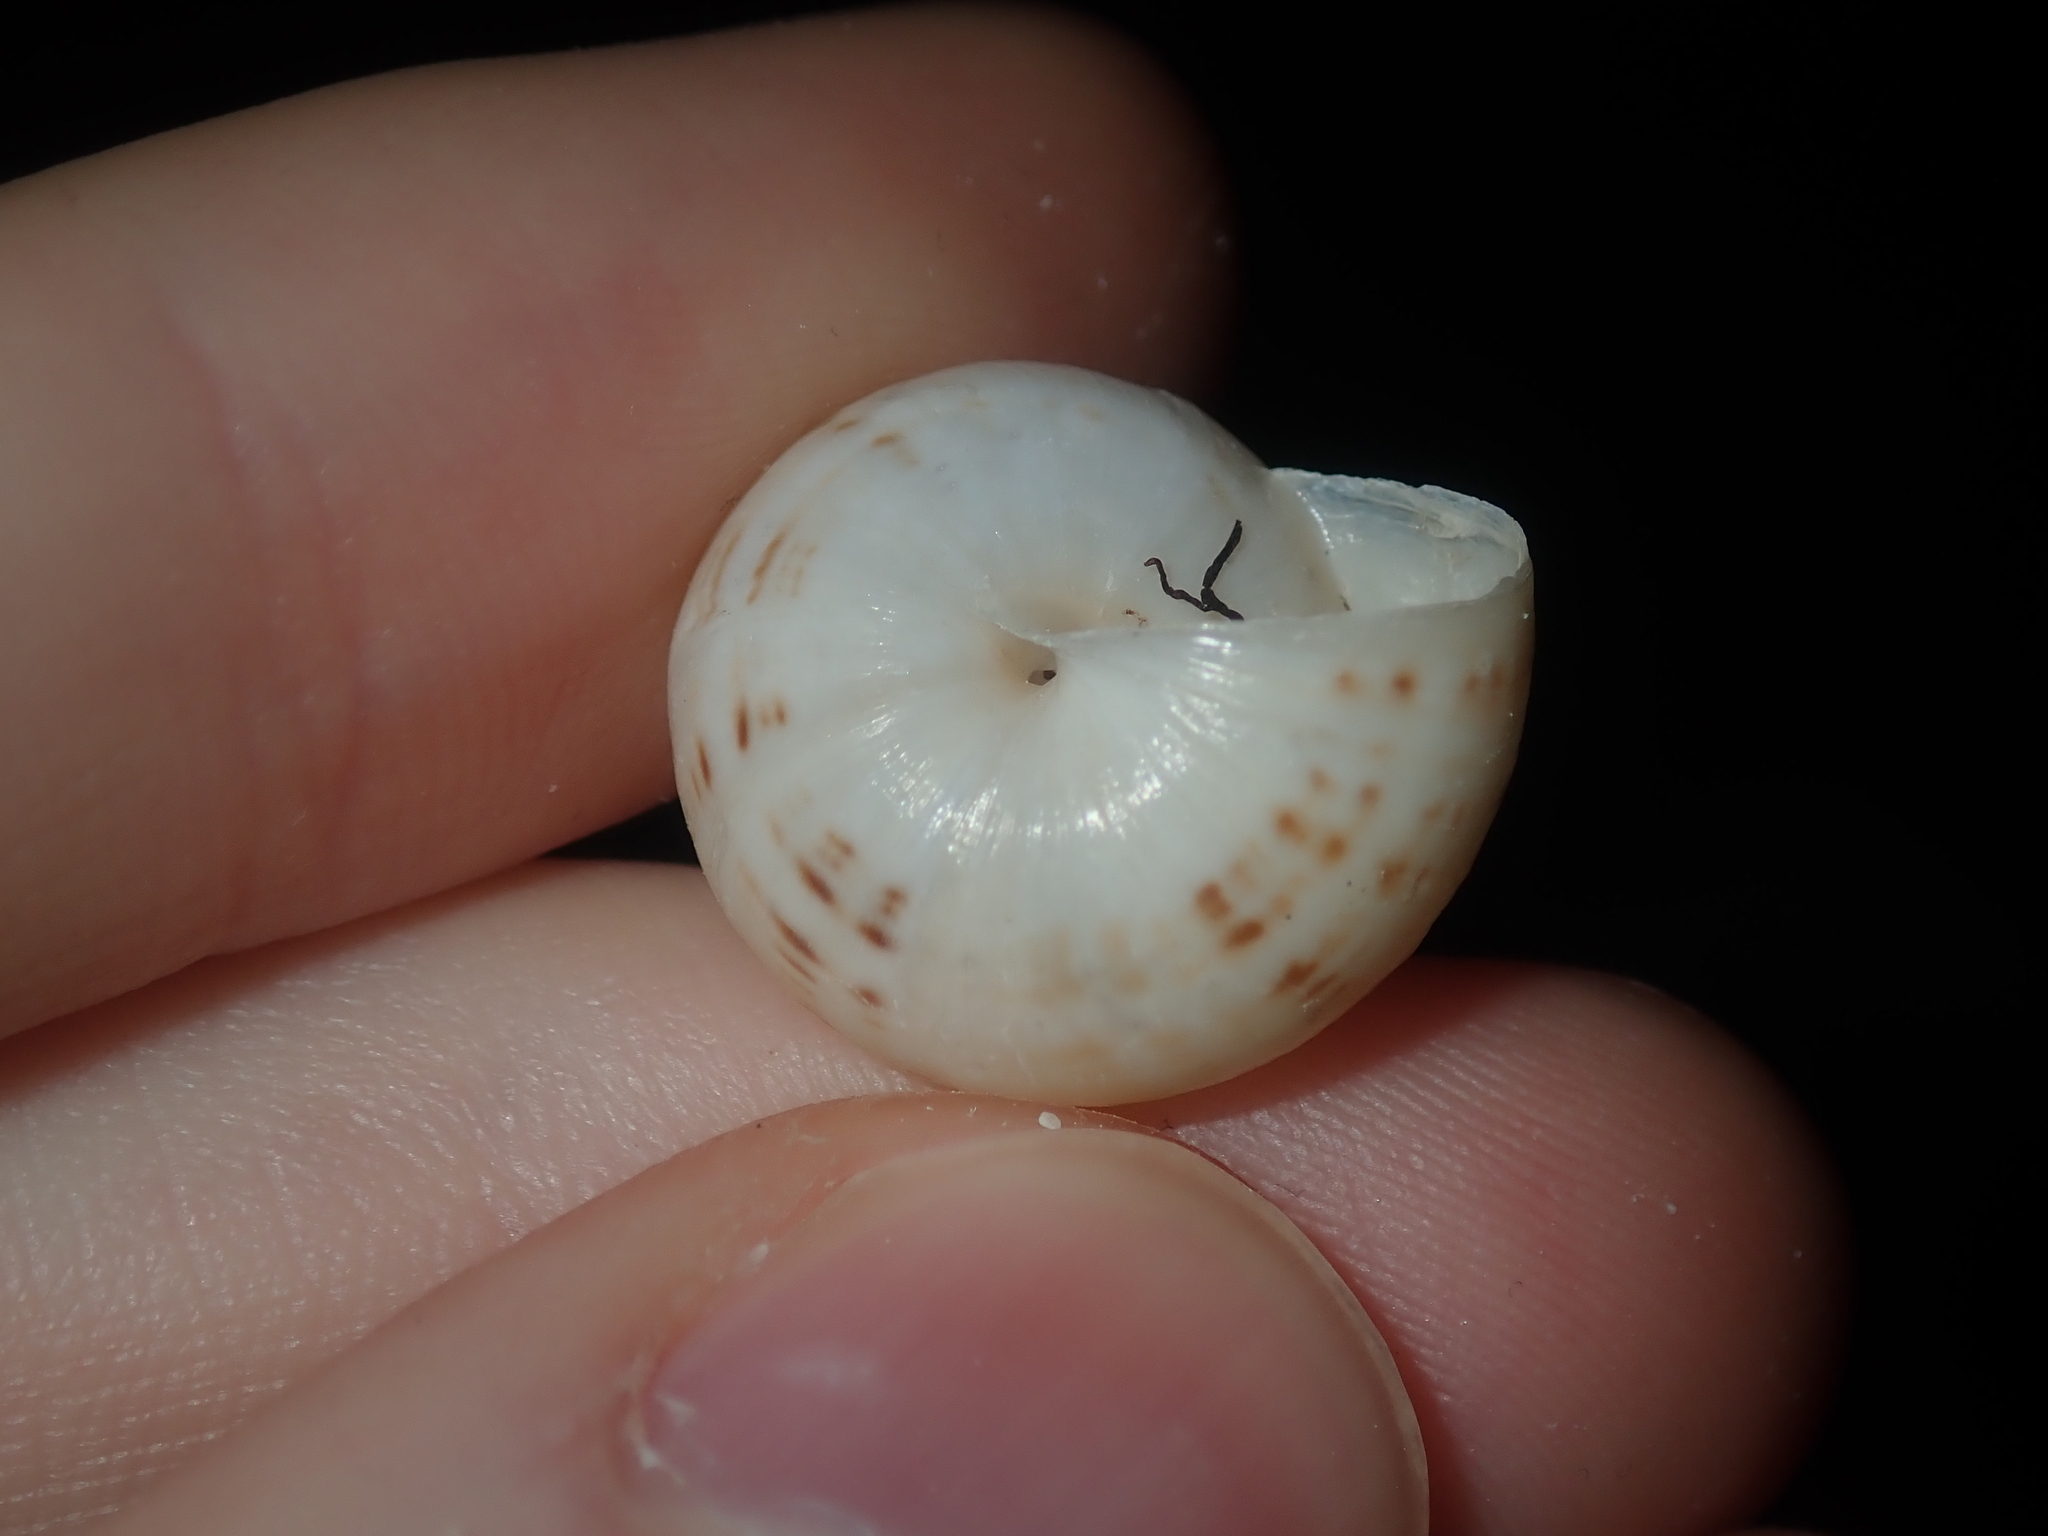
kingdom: Animalia
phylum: Mollusca
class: Gastropoda
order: Stylommatophora
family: Helicidae
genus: Theba
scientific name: Theba pisana
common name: White snail
